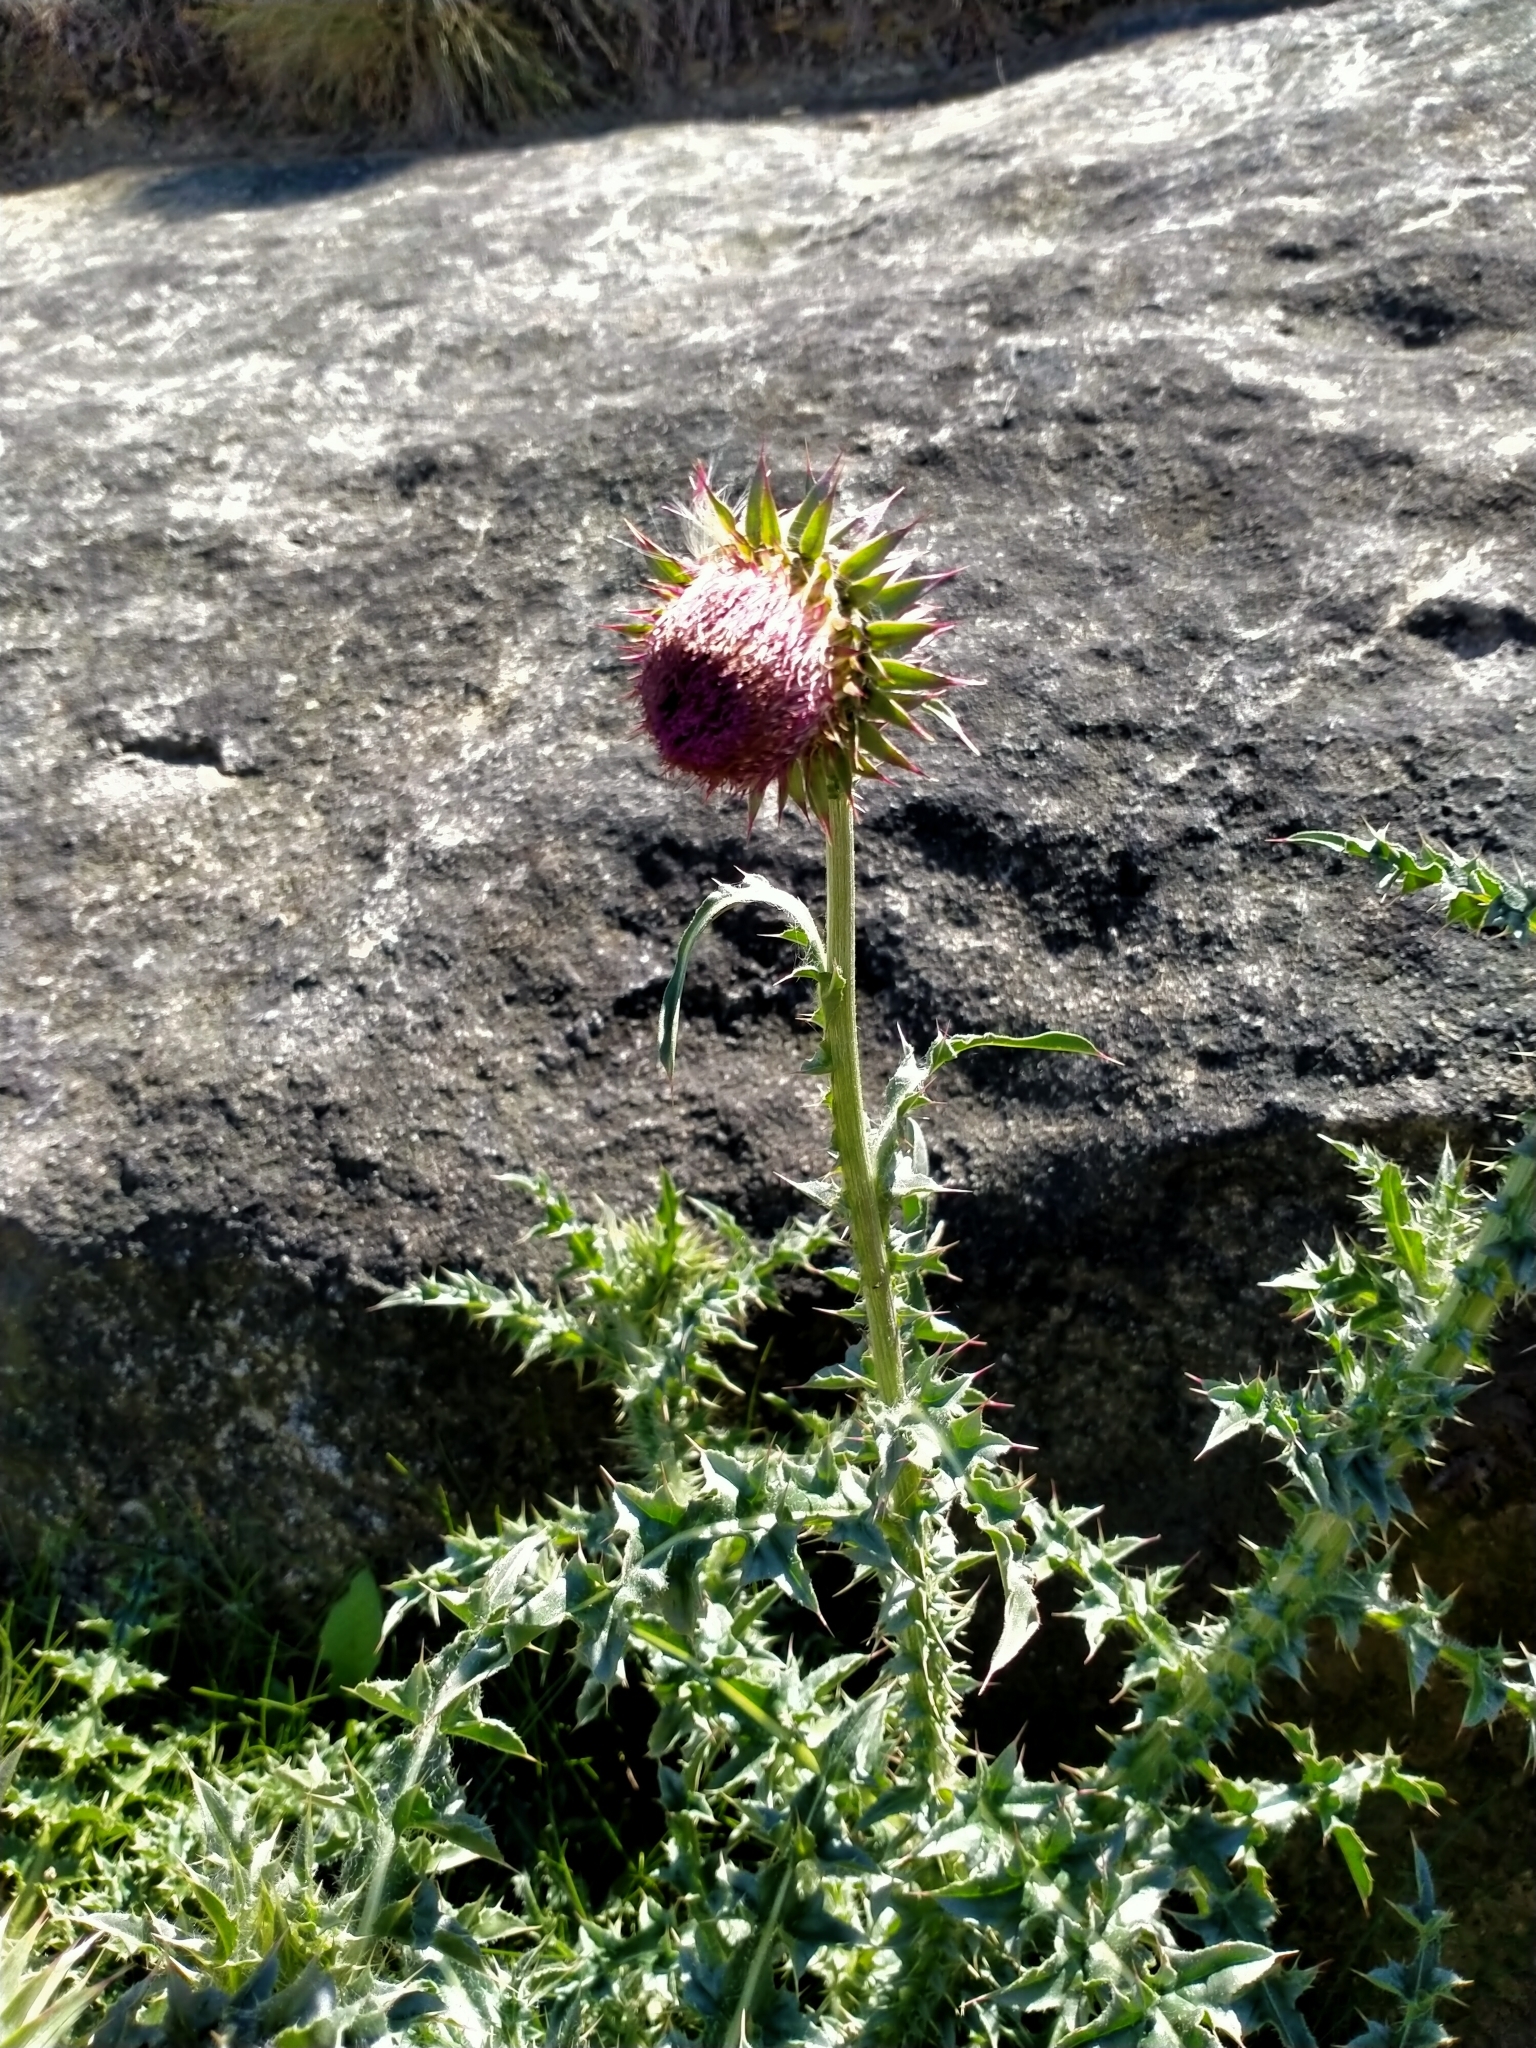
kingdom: Plantae
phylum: Tracheophyta
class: Magnoliopsida
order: Asterales
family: Asteraceae
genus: Carduus
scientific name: Carduus nutans
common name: Musk thistle
